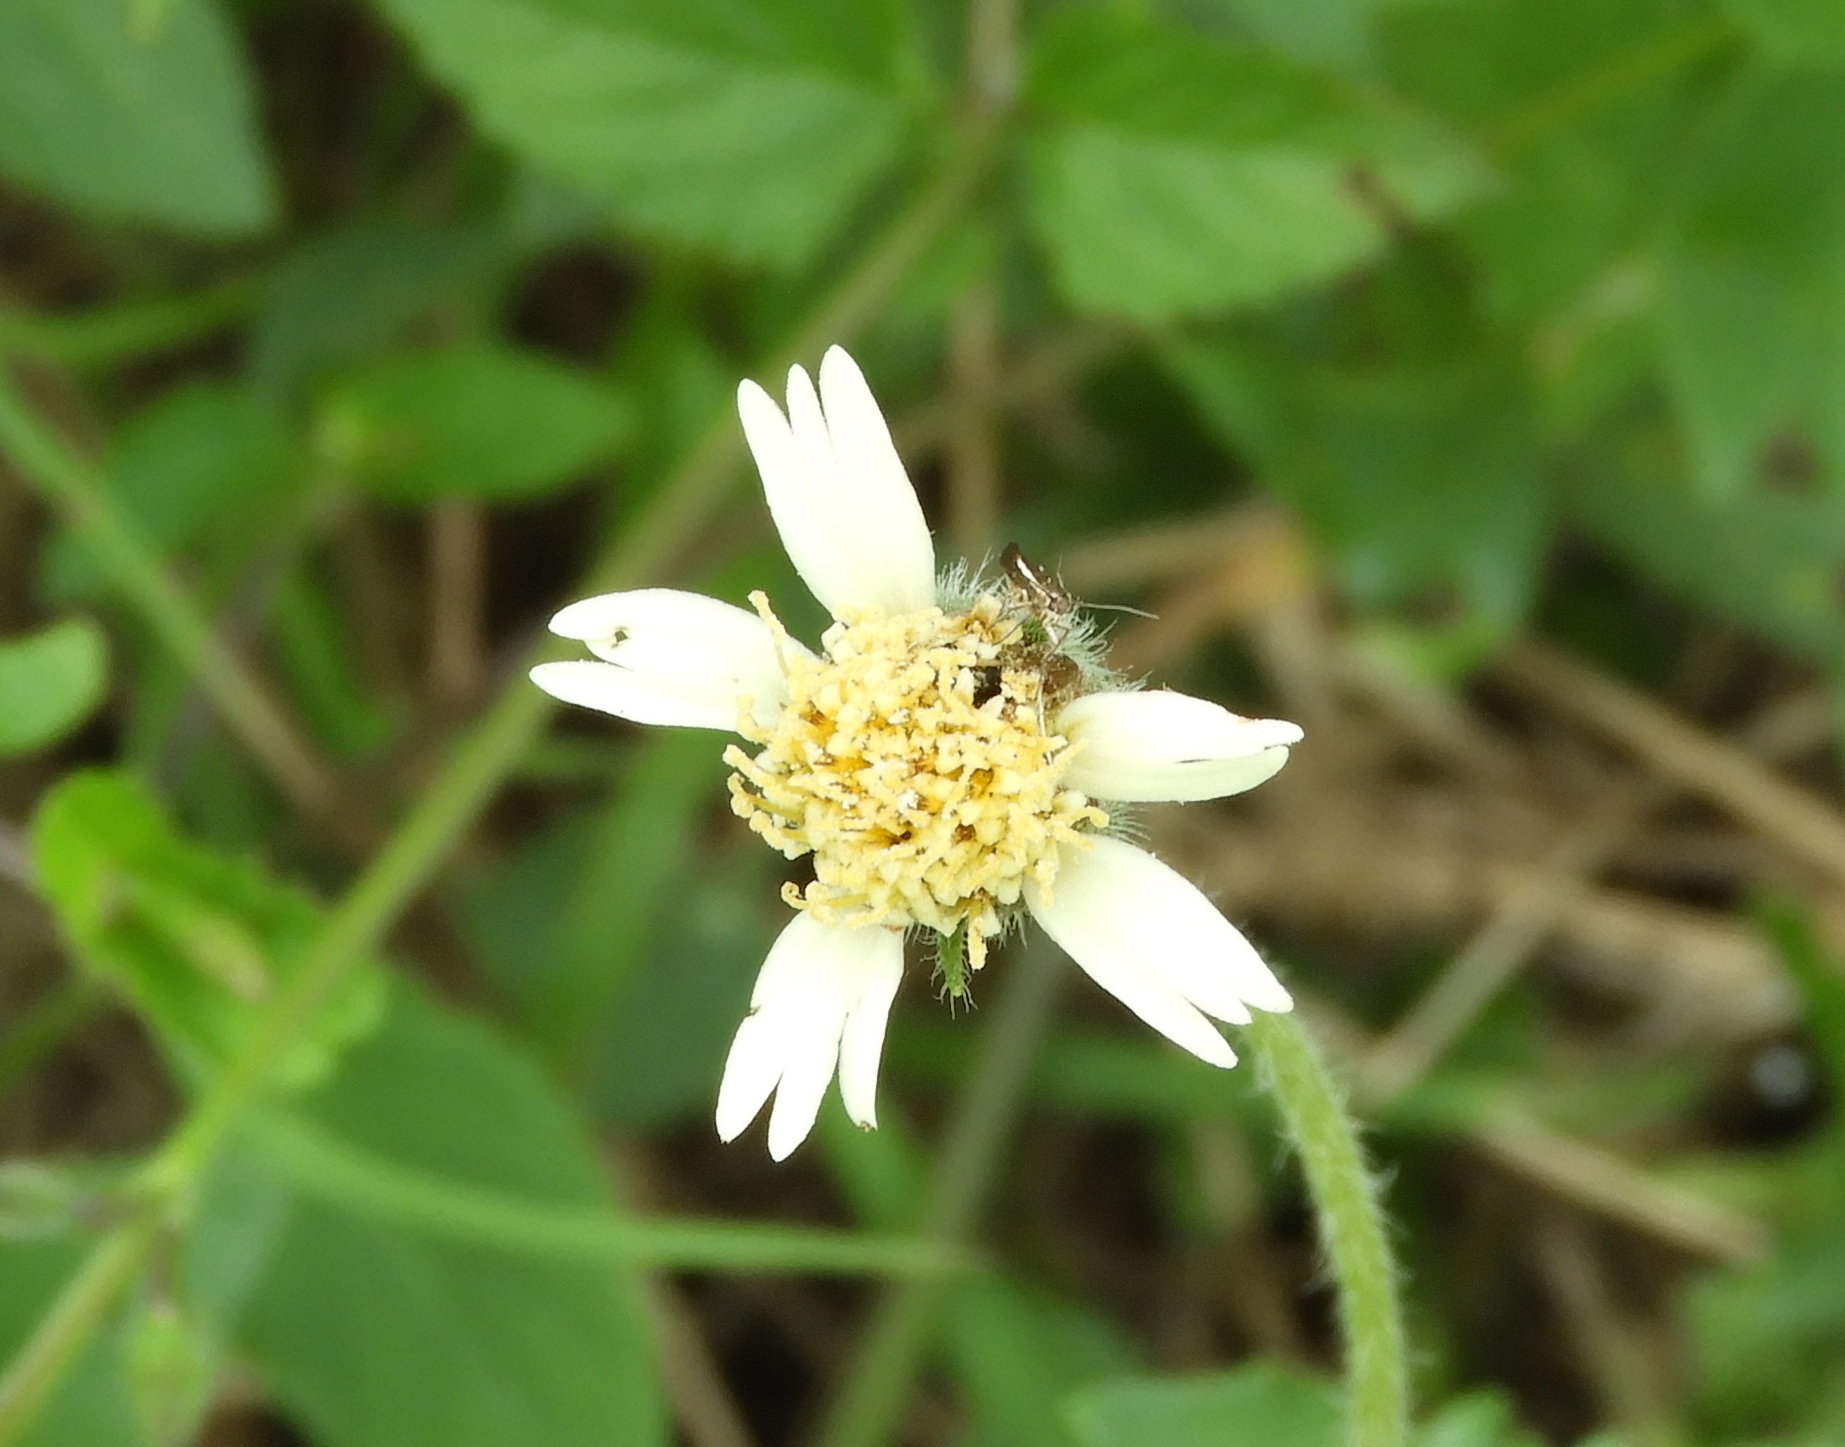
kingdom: Plantae
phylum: Tracheophyta
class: Magnoliopsida
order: Asterales
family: Asteraceae
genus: Tridax
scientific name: Tridax procumbens
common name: Coatbuttons
